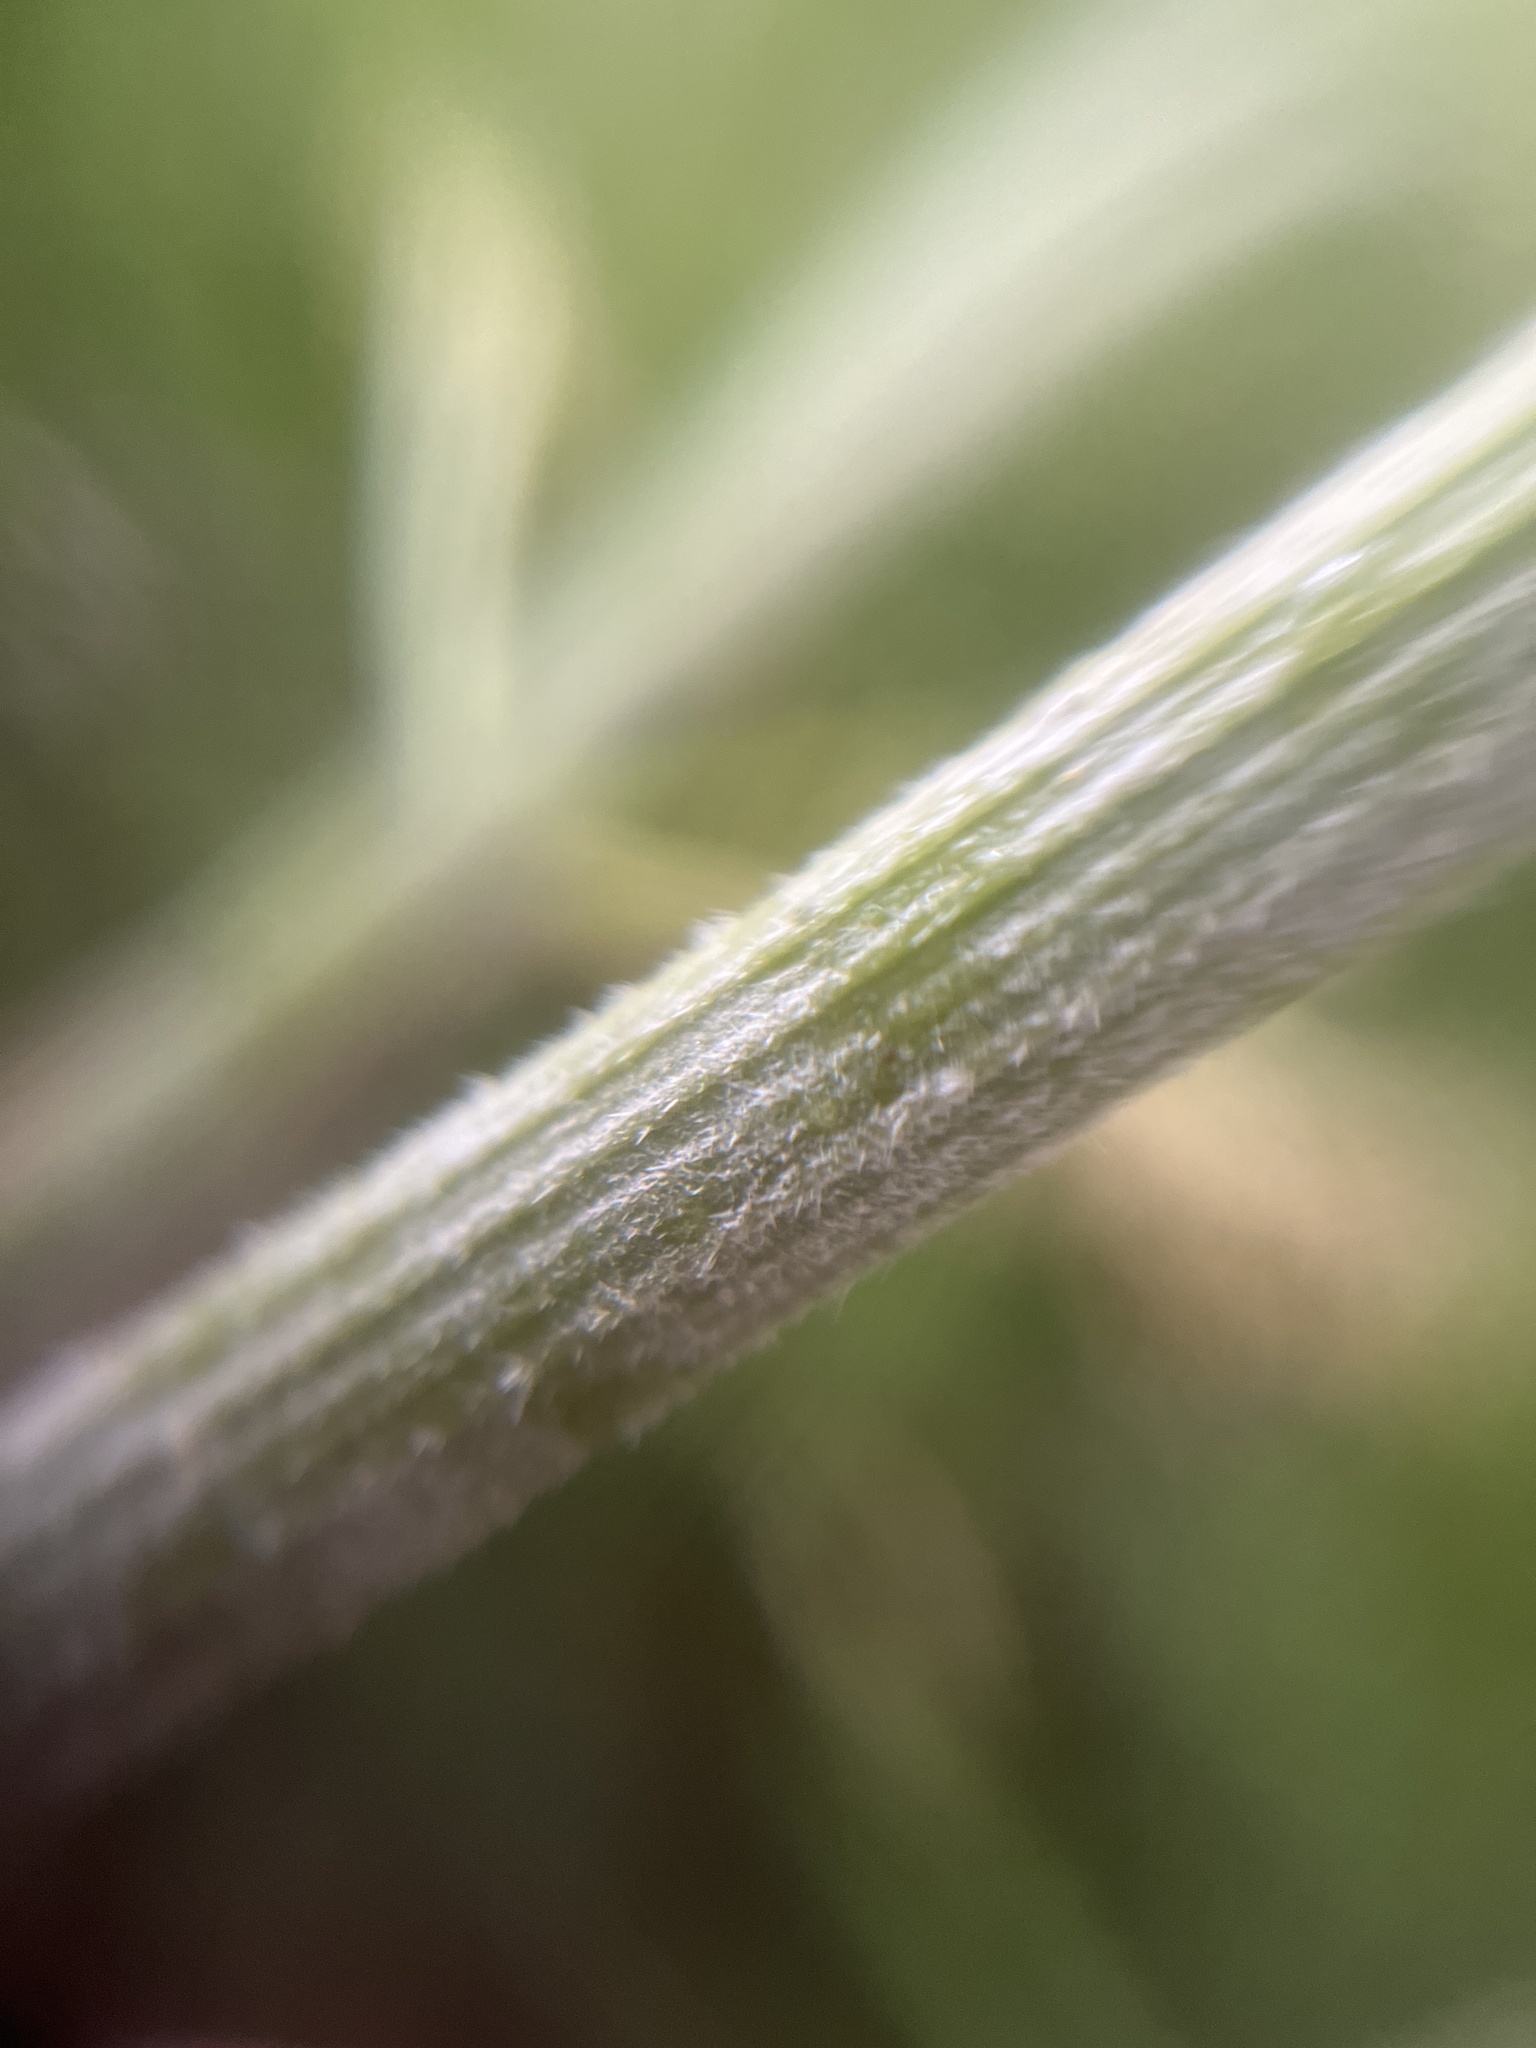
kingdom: Fungi
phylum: Ascomycota
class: Leotiomycetes
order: Helotiales
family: Erysiphaceae
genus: Erysiphe
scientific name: Erysiphe heraclei
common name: Umbellifer mildew
